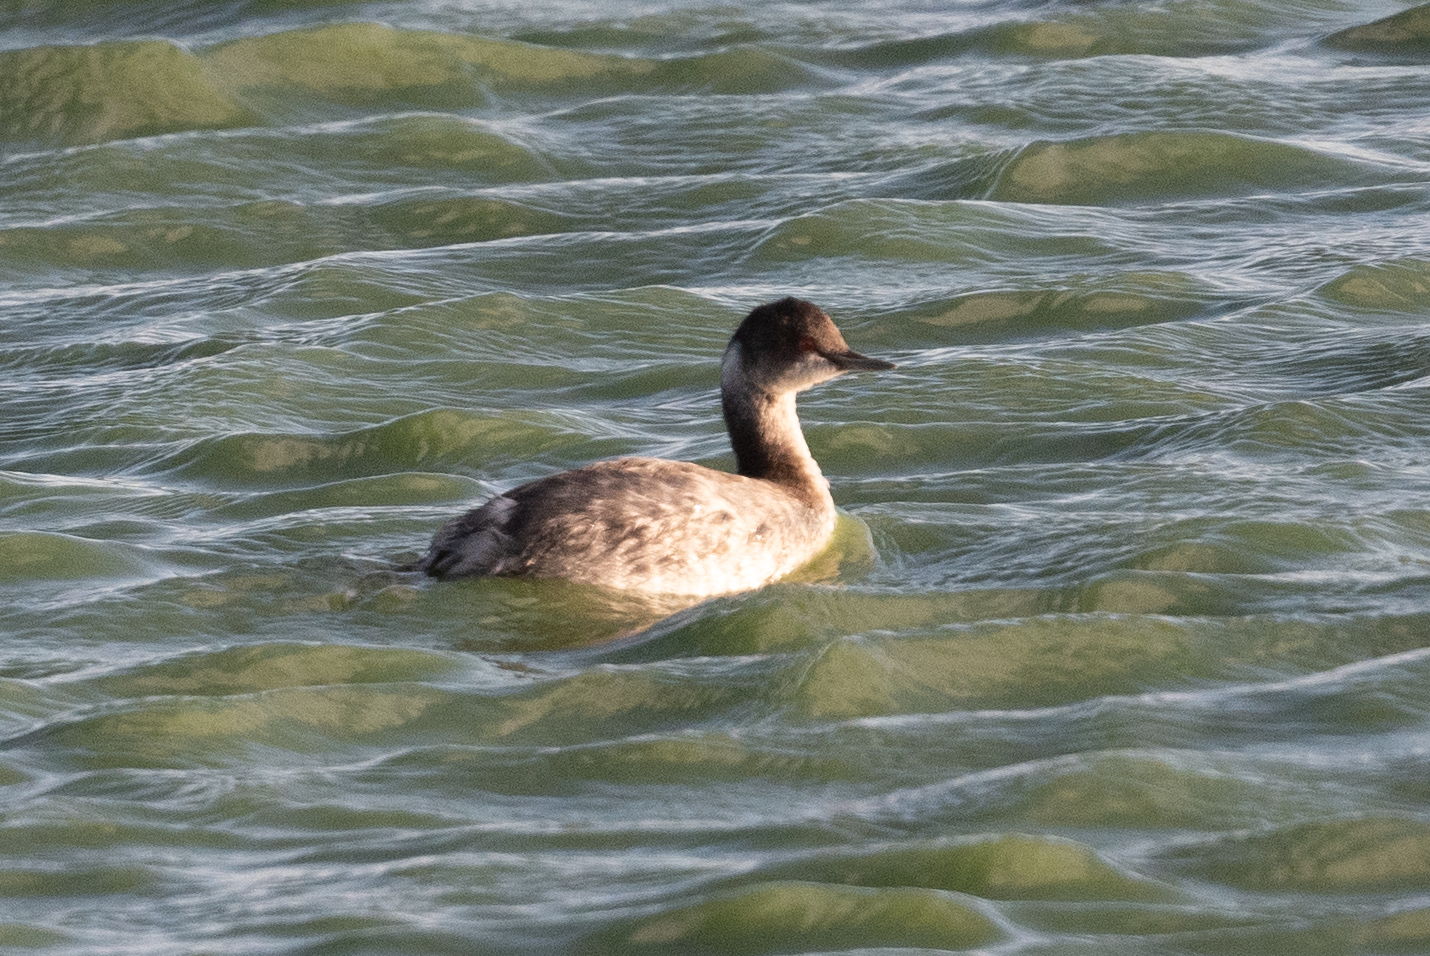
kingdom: Animalia
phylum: Chordata
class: Aves
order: Podicipediformes
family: Podicipedidae
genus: Podiceps
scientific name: Podiceps nigricollis
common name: Black-necked grebe
